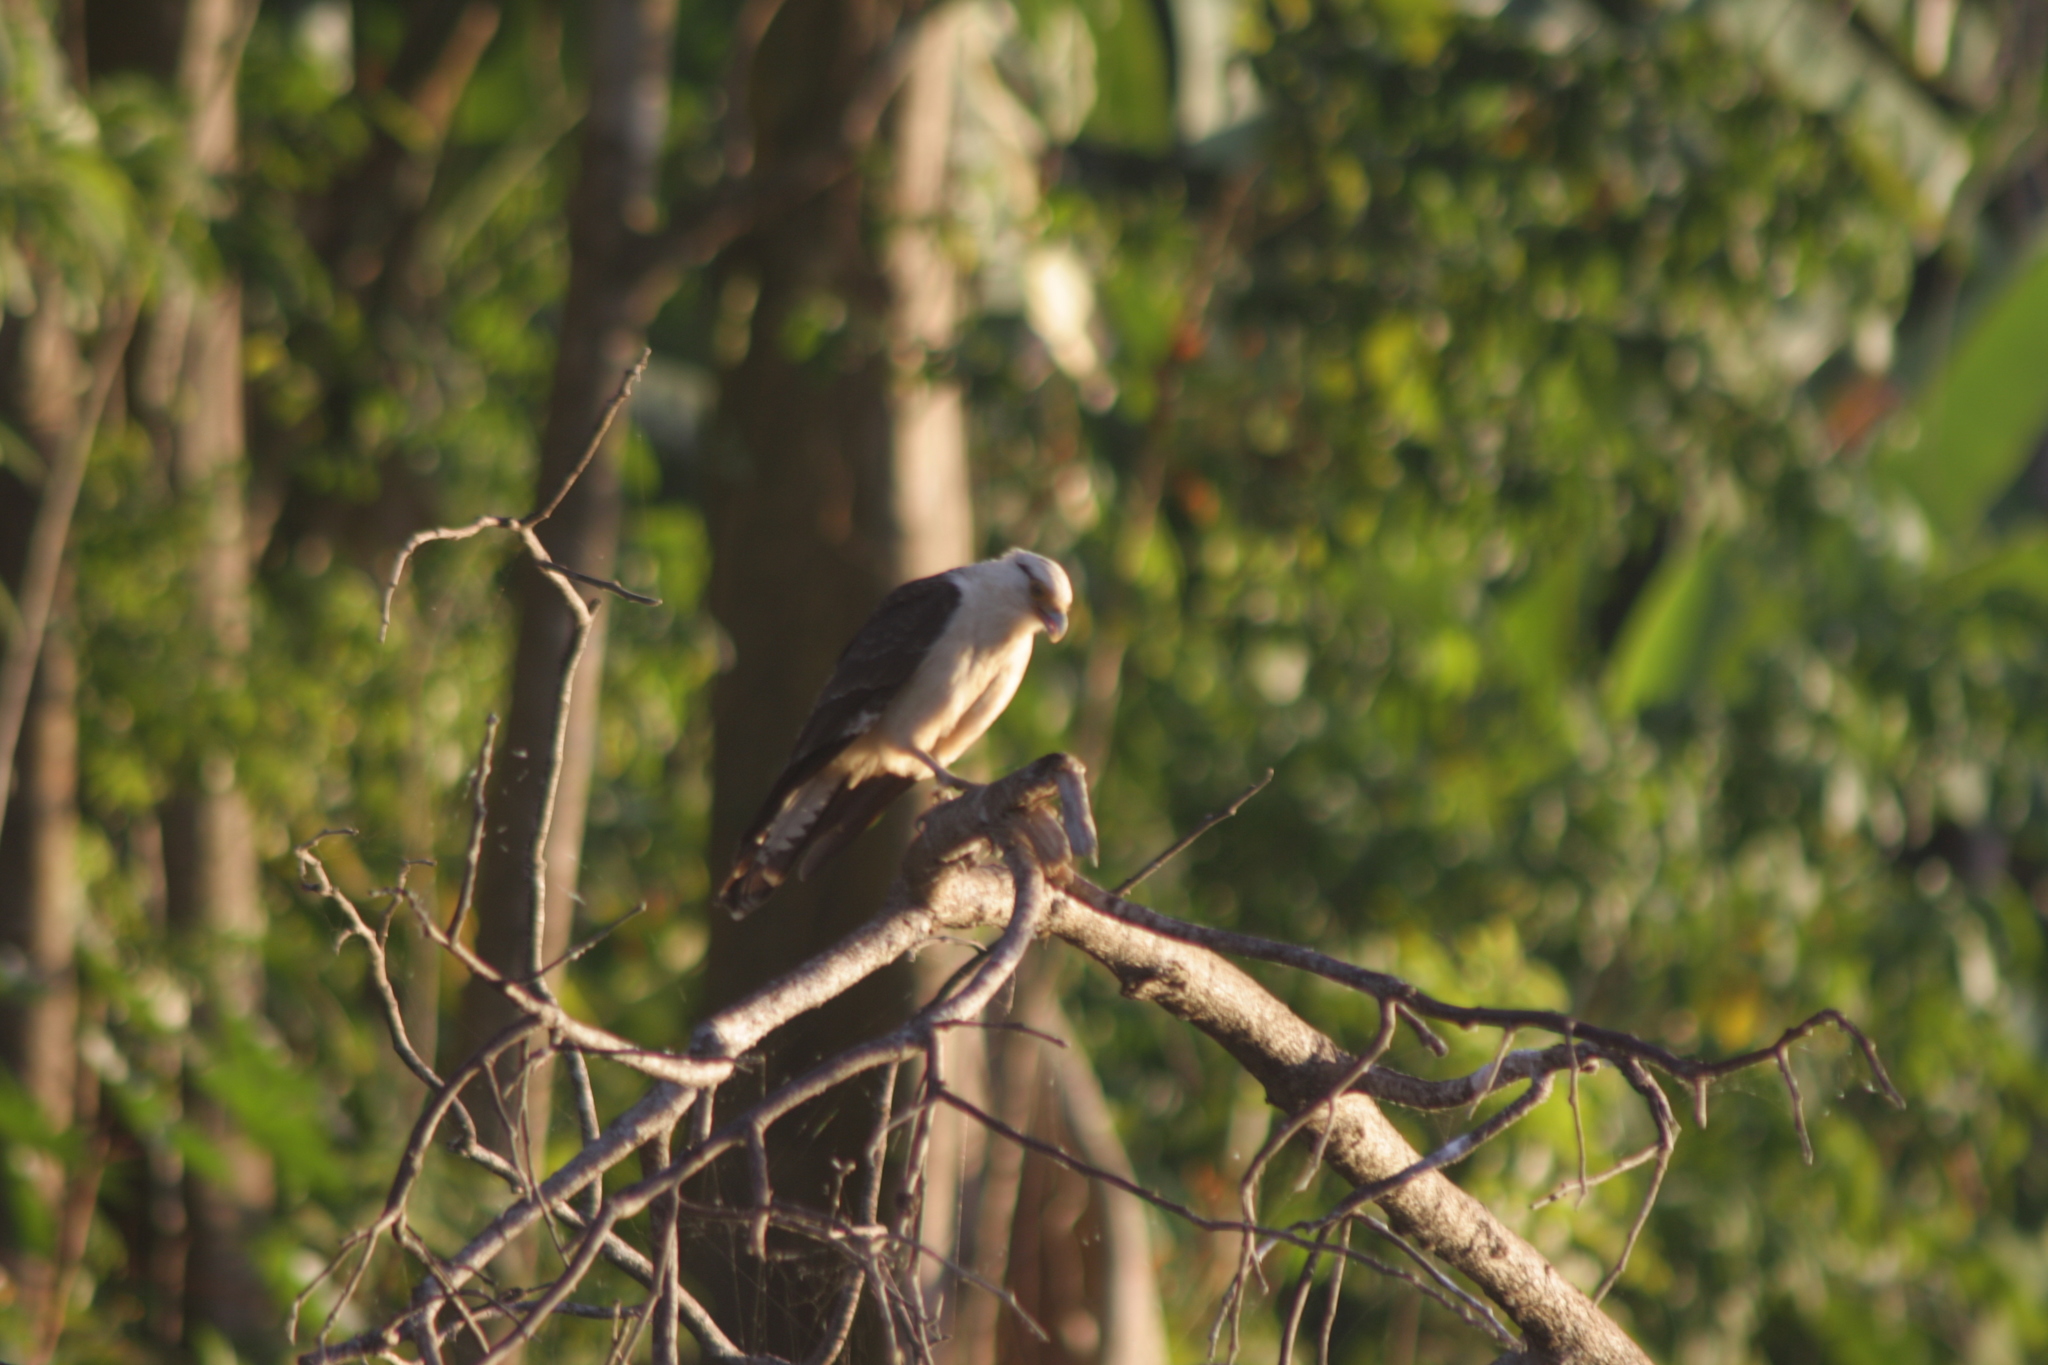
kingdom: Animalia
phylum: Chordata
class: Aves
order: Falconiformes
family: Falconidae
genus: Daptrius
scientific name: Daptrius
